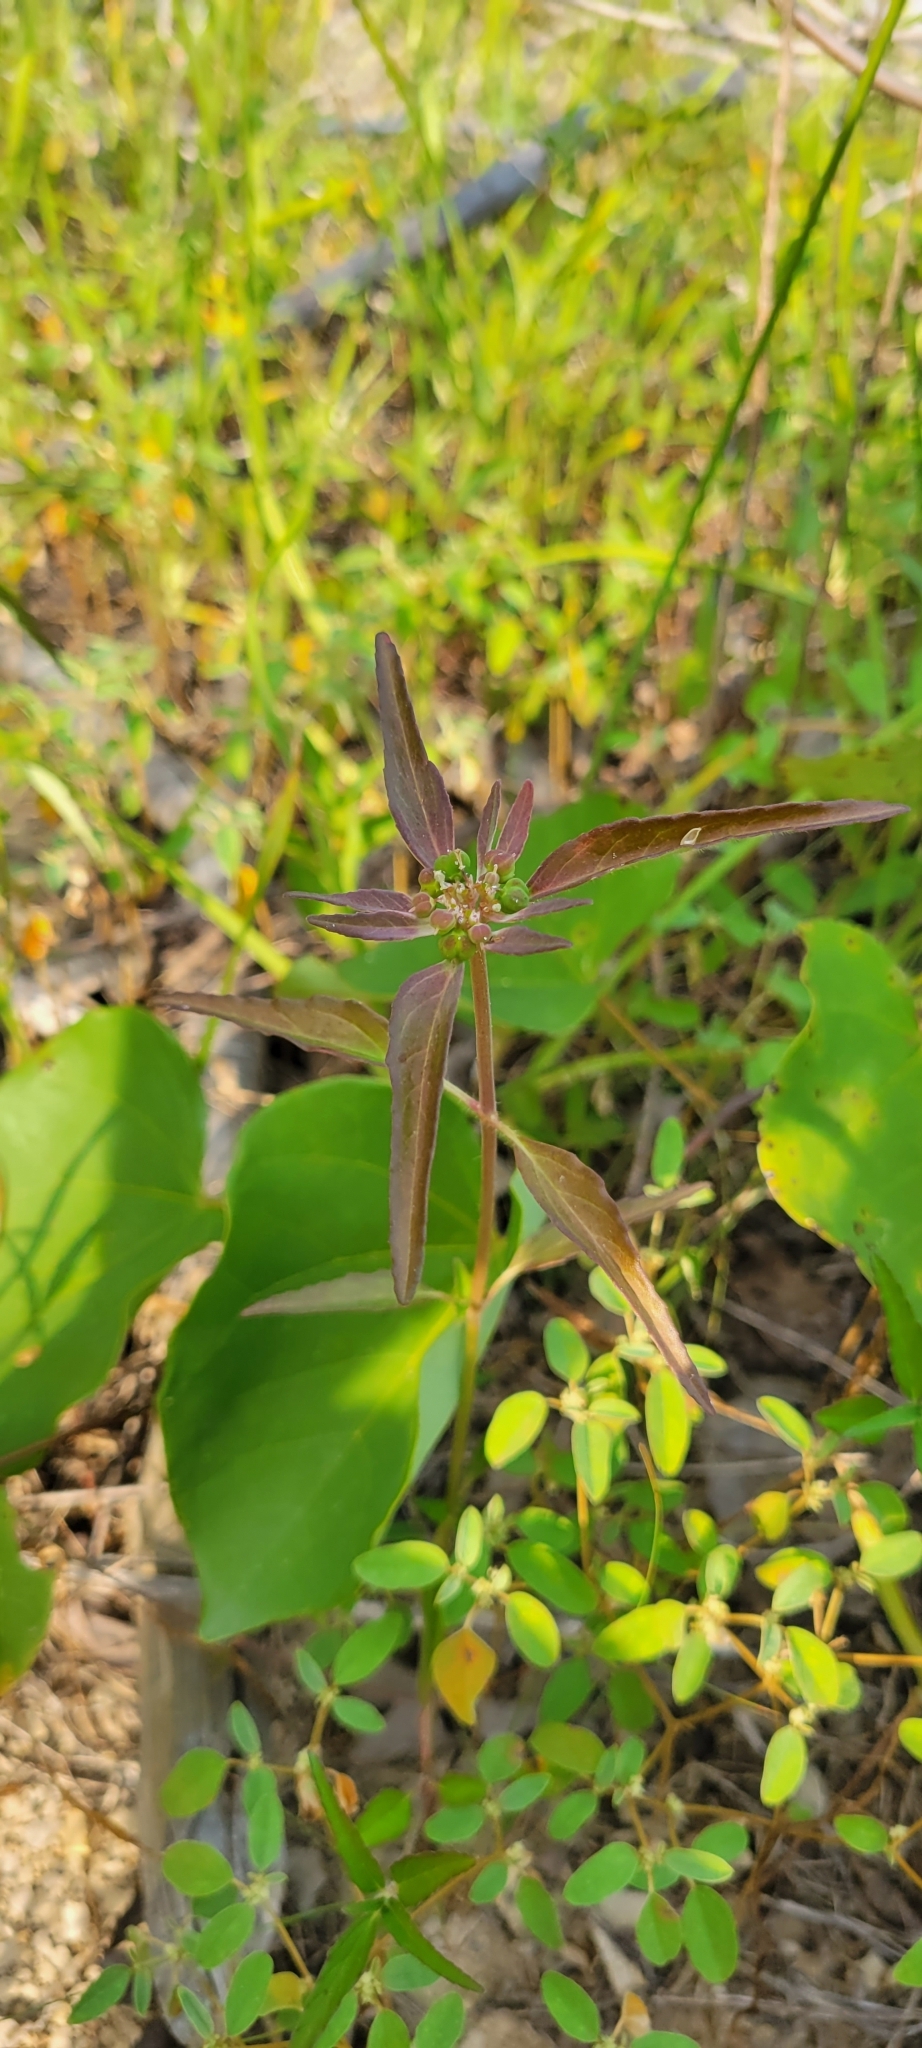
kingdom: Plantae
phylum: Tracheophyta
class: Magnoliopsida
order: Malpighiales
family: Euphorbiaceae
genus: Euphorbia
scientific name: Euphorbia dentata
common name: Dentate spurge
